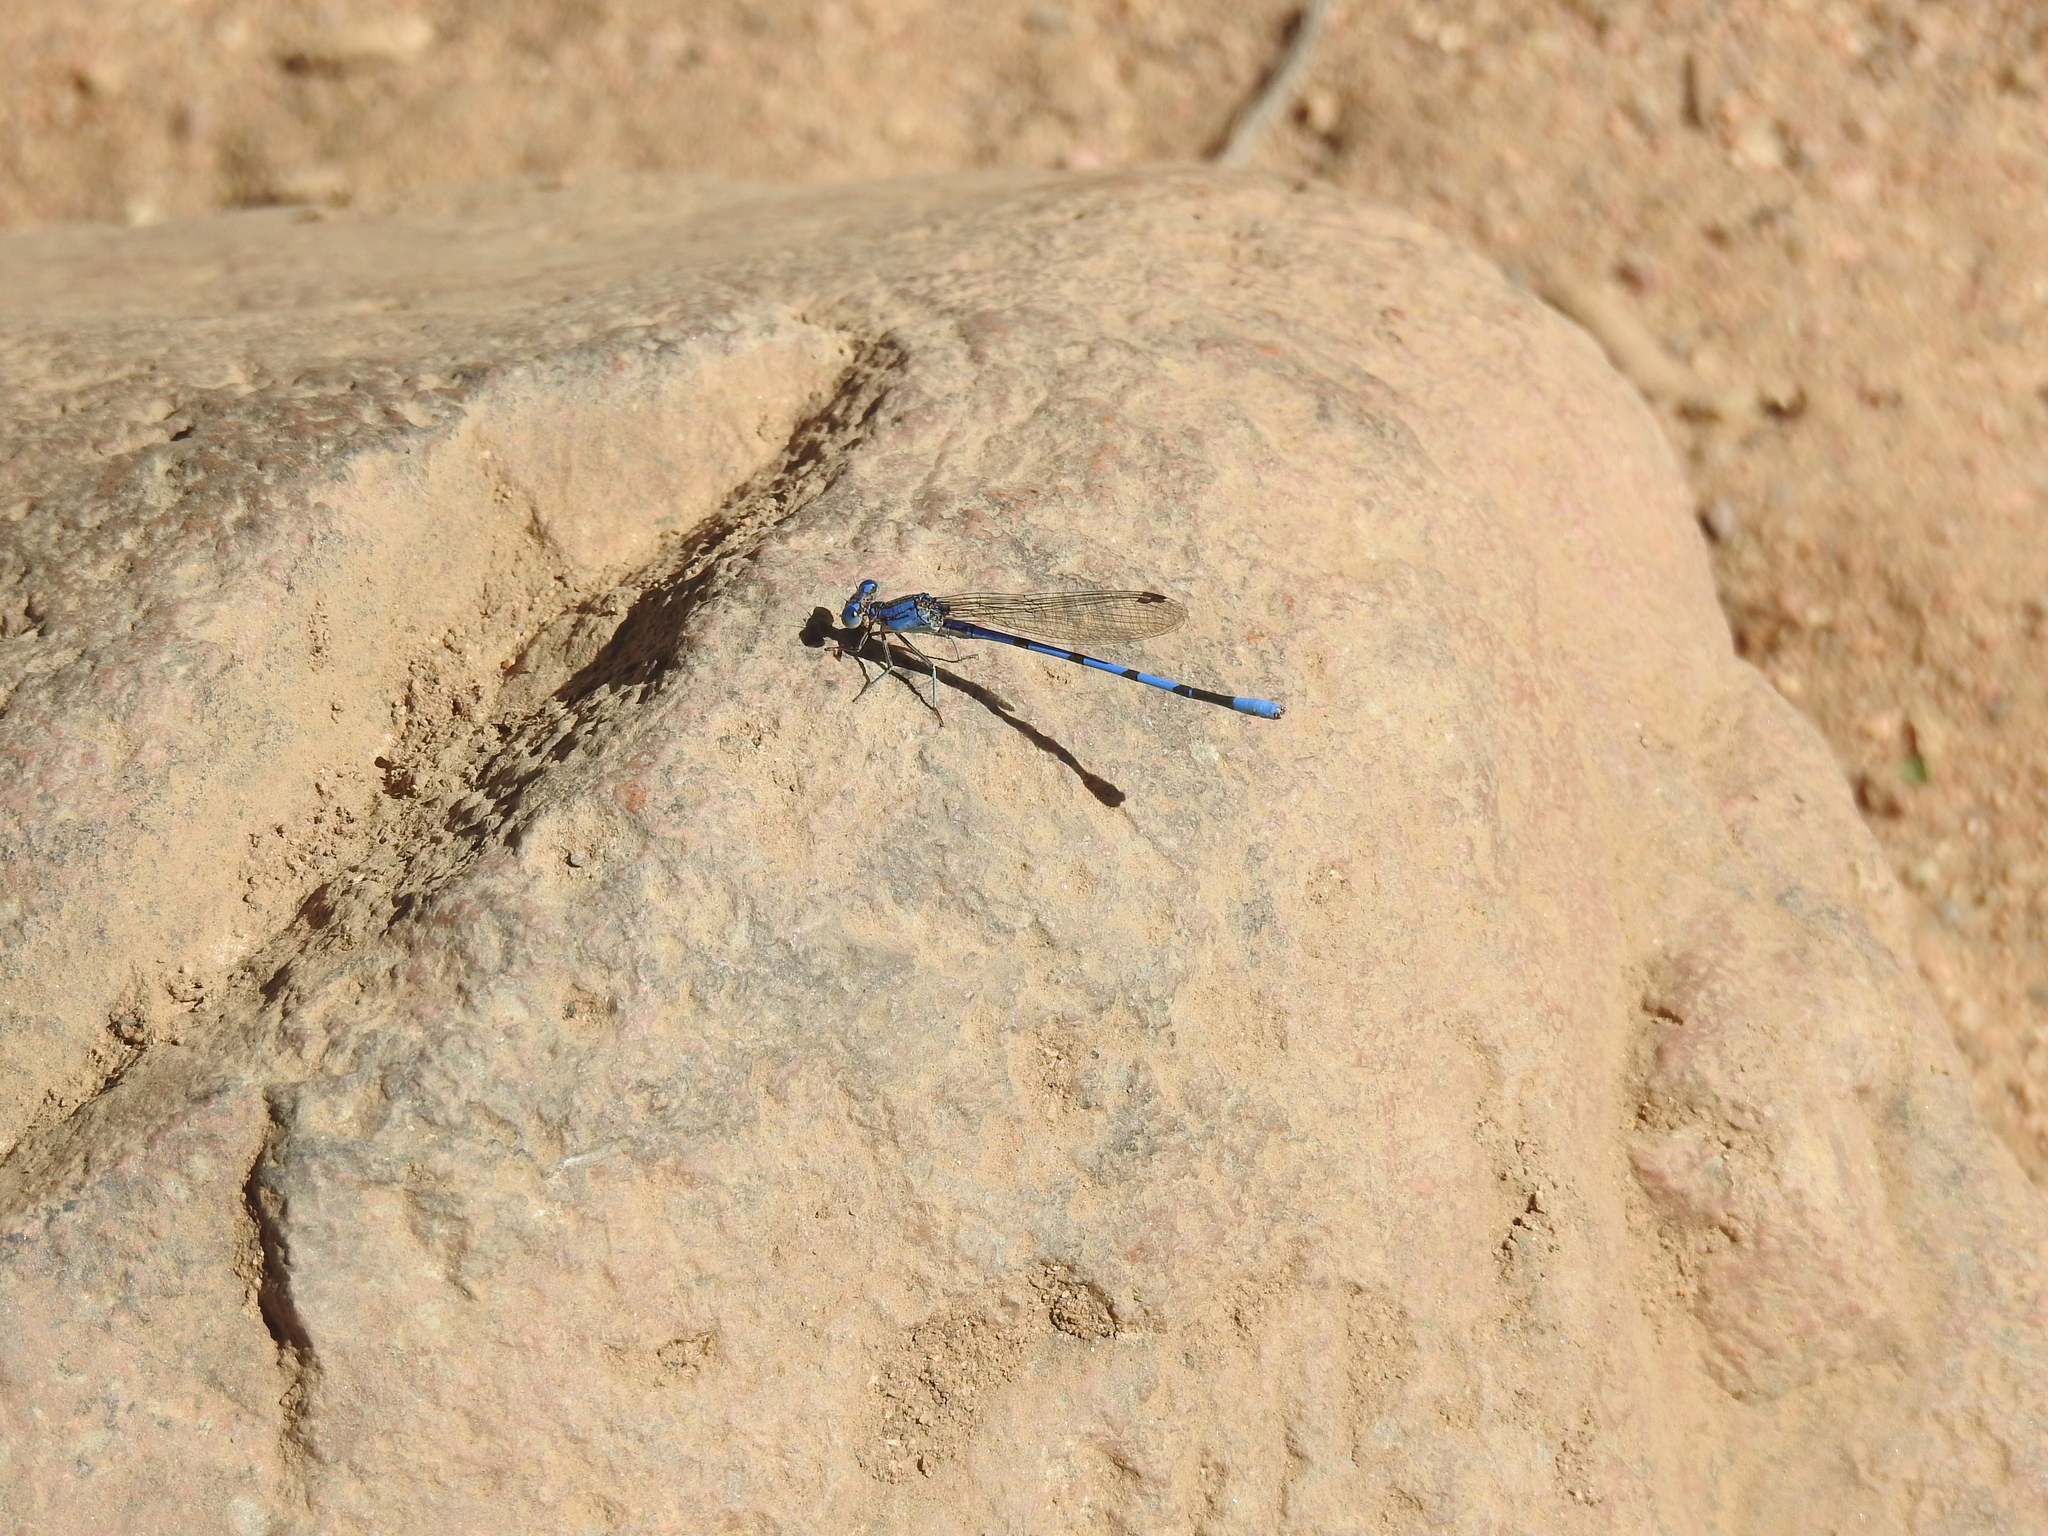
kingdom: Animalia
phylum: Arthropoda
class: Insecta
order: Odonata
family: Coenagrionidae
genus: Argia
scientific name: Argia agrioides
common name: California dancer
